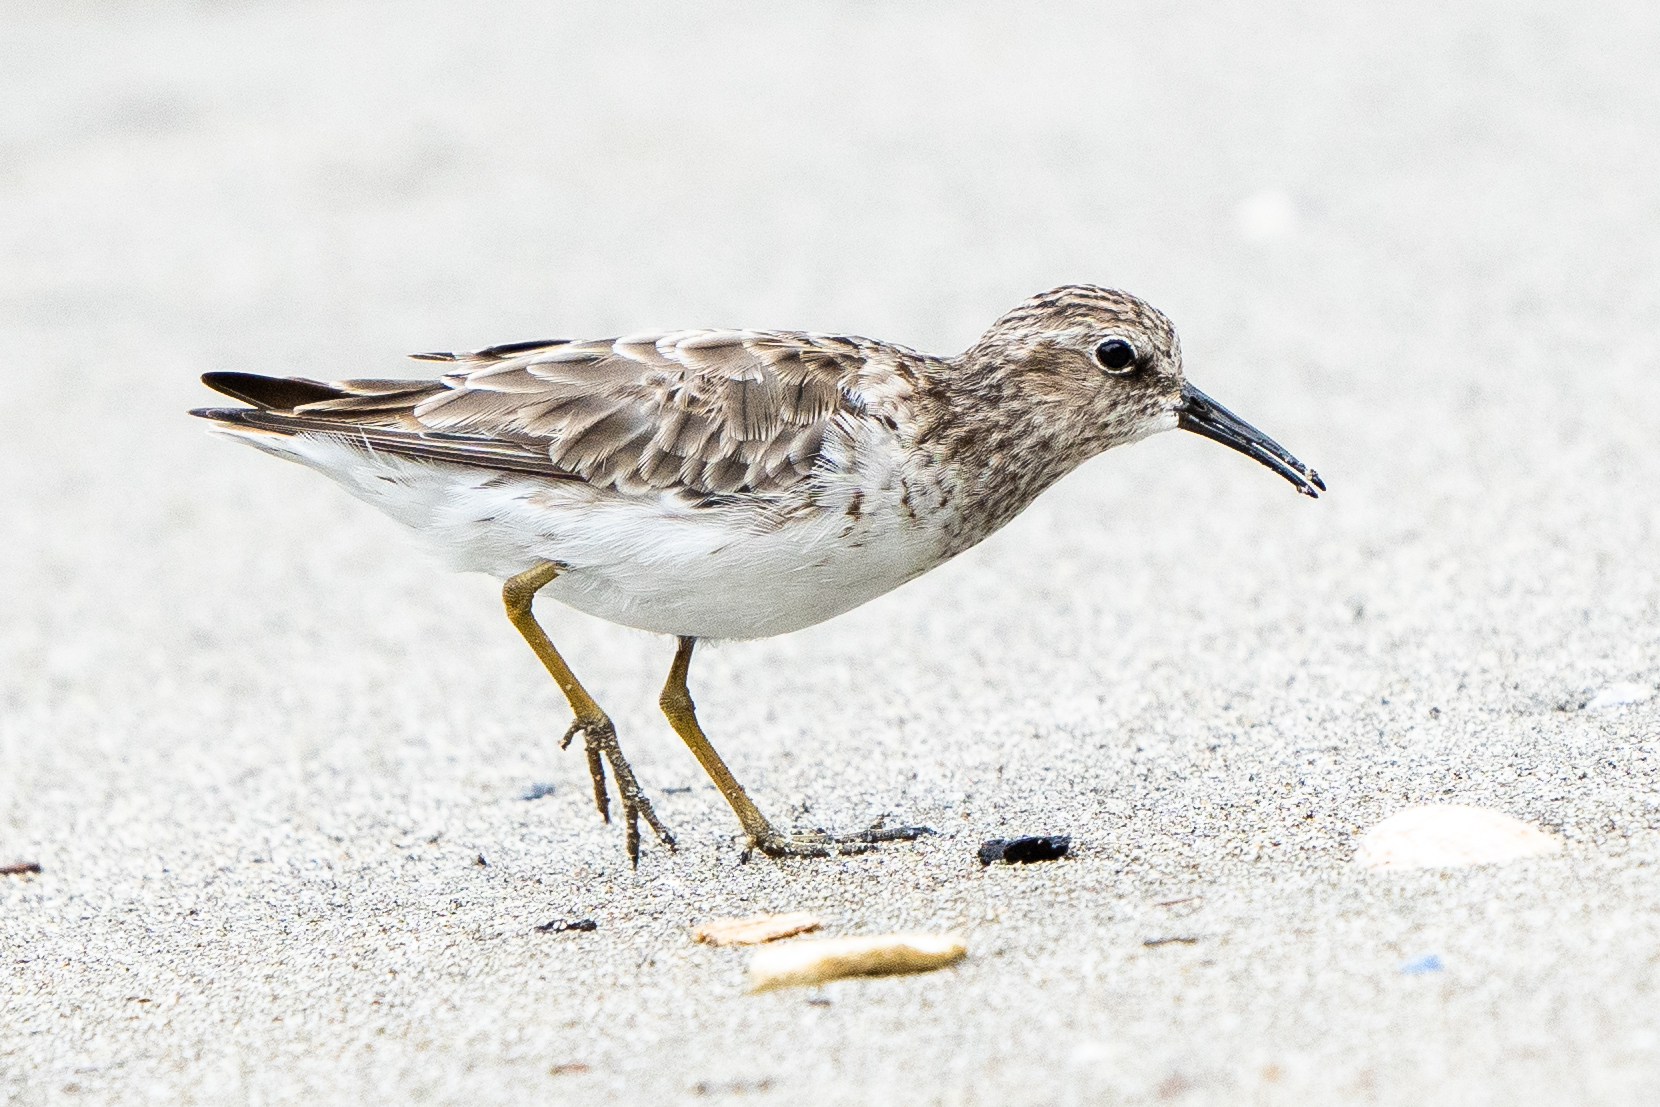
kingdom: Animalia
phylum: Chordata
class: Aves
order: Charadriiformes
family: Scolopacidae
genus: Calidris
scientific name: Calidris minutilla
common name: Least sandpiper
